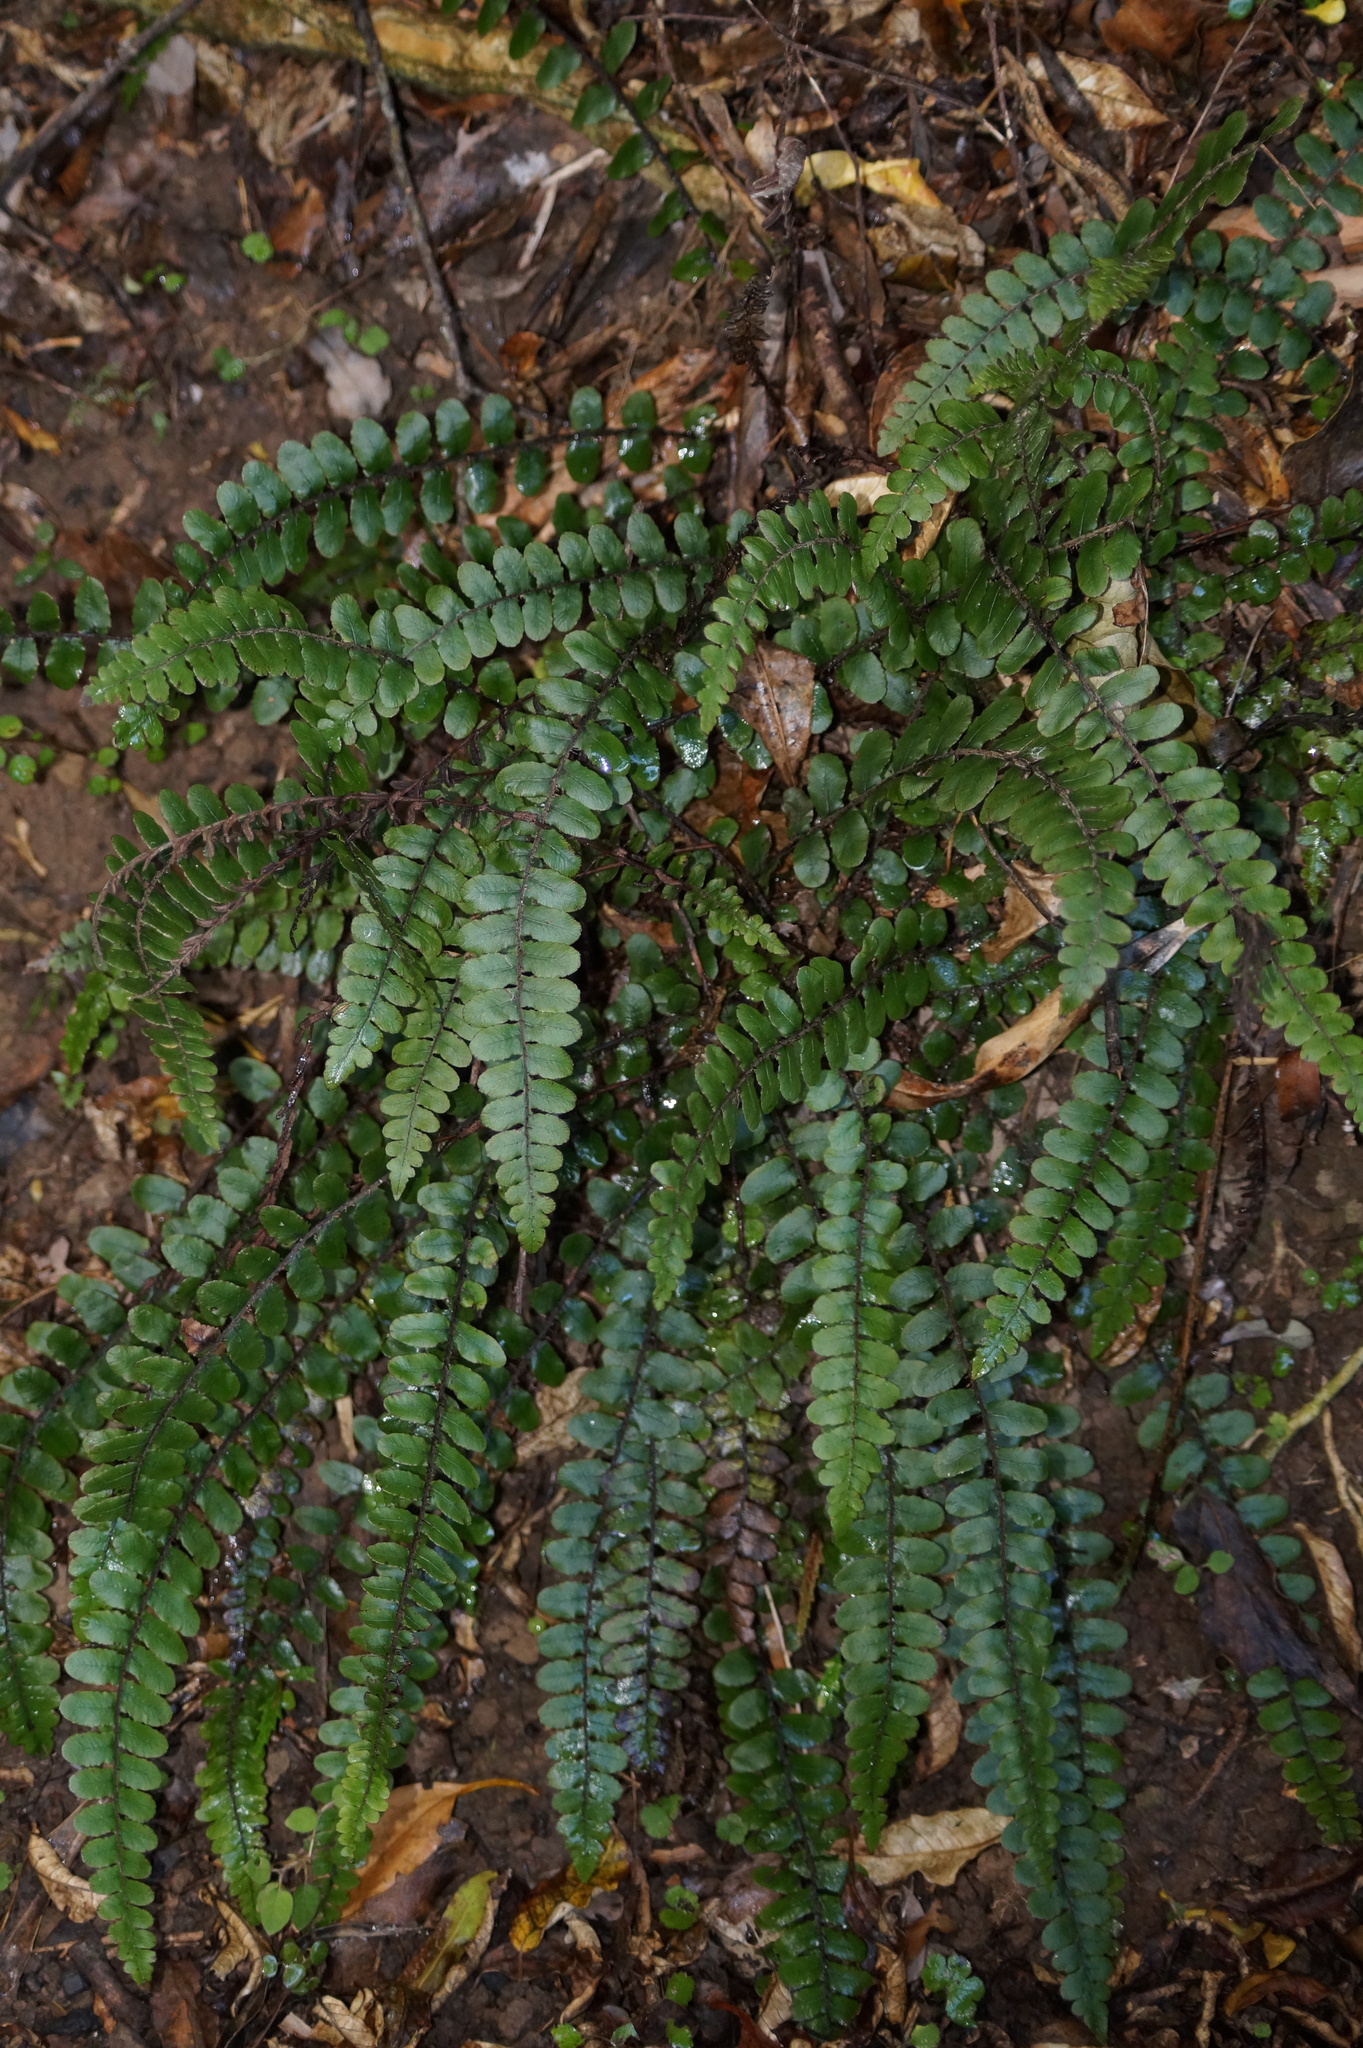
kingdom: Plantae
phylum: Tracheophyta
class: Polypodiopsida
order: Polypodiales
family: Blechnaceae
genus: Cranfillia
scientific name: Cranfillia fluviatilis
